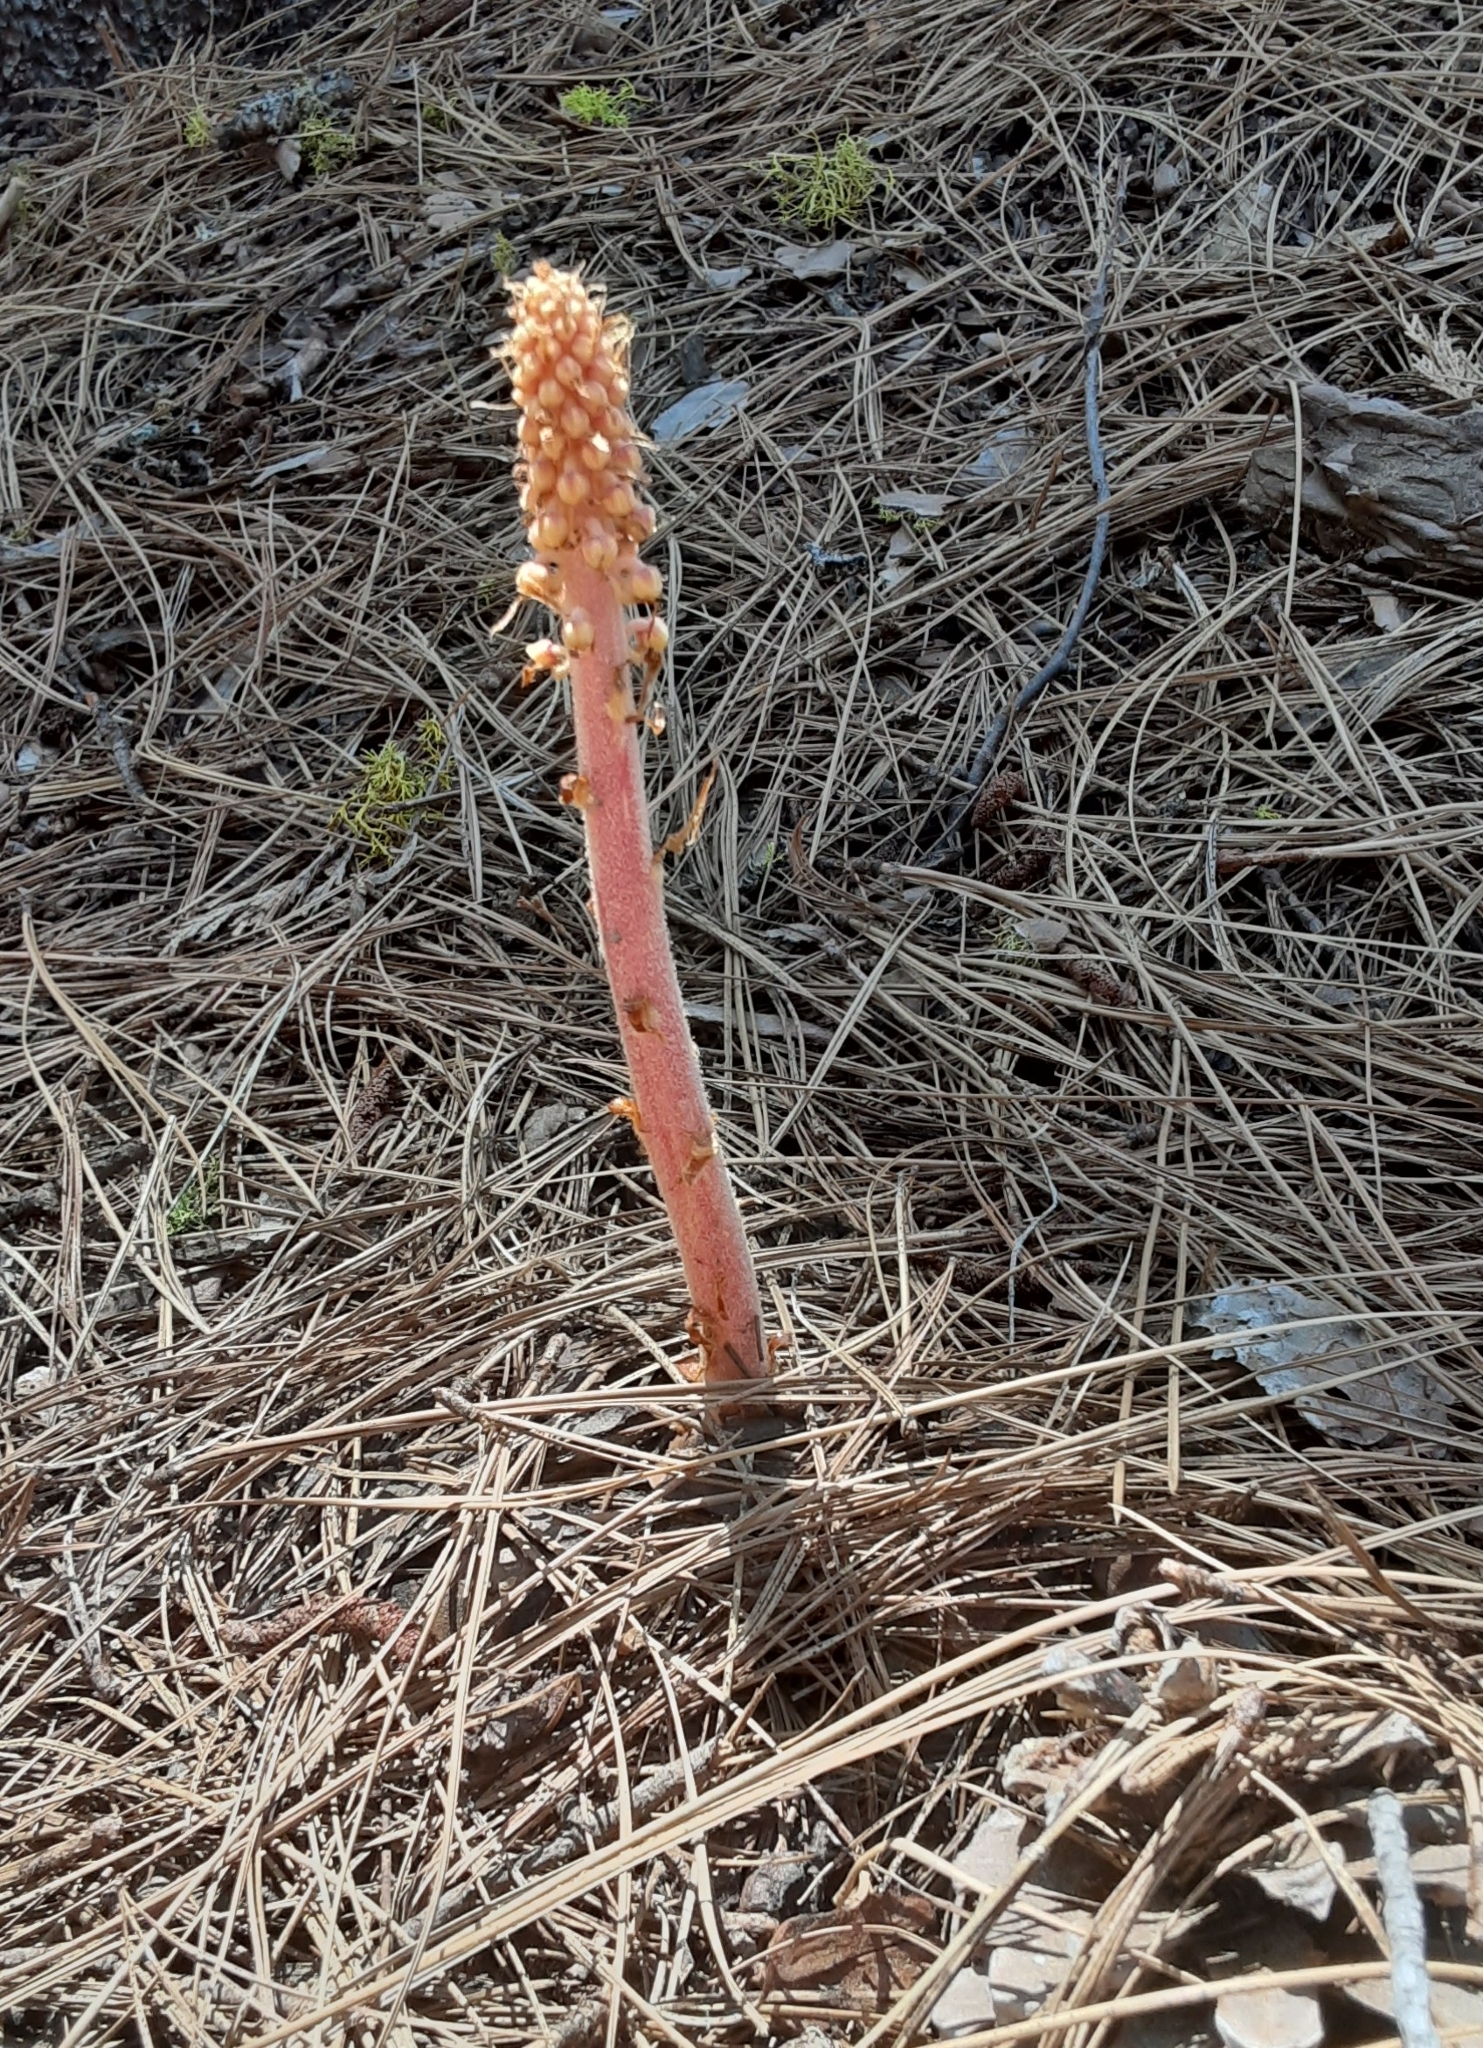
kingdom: Plantae
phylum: Tracheophyta
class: Magnoliopsida
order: Ericales
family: Ericaceae
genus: Pterospora
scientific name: Pterospora andromedea
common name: Giant bird's-nest
